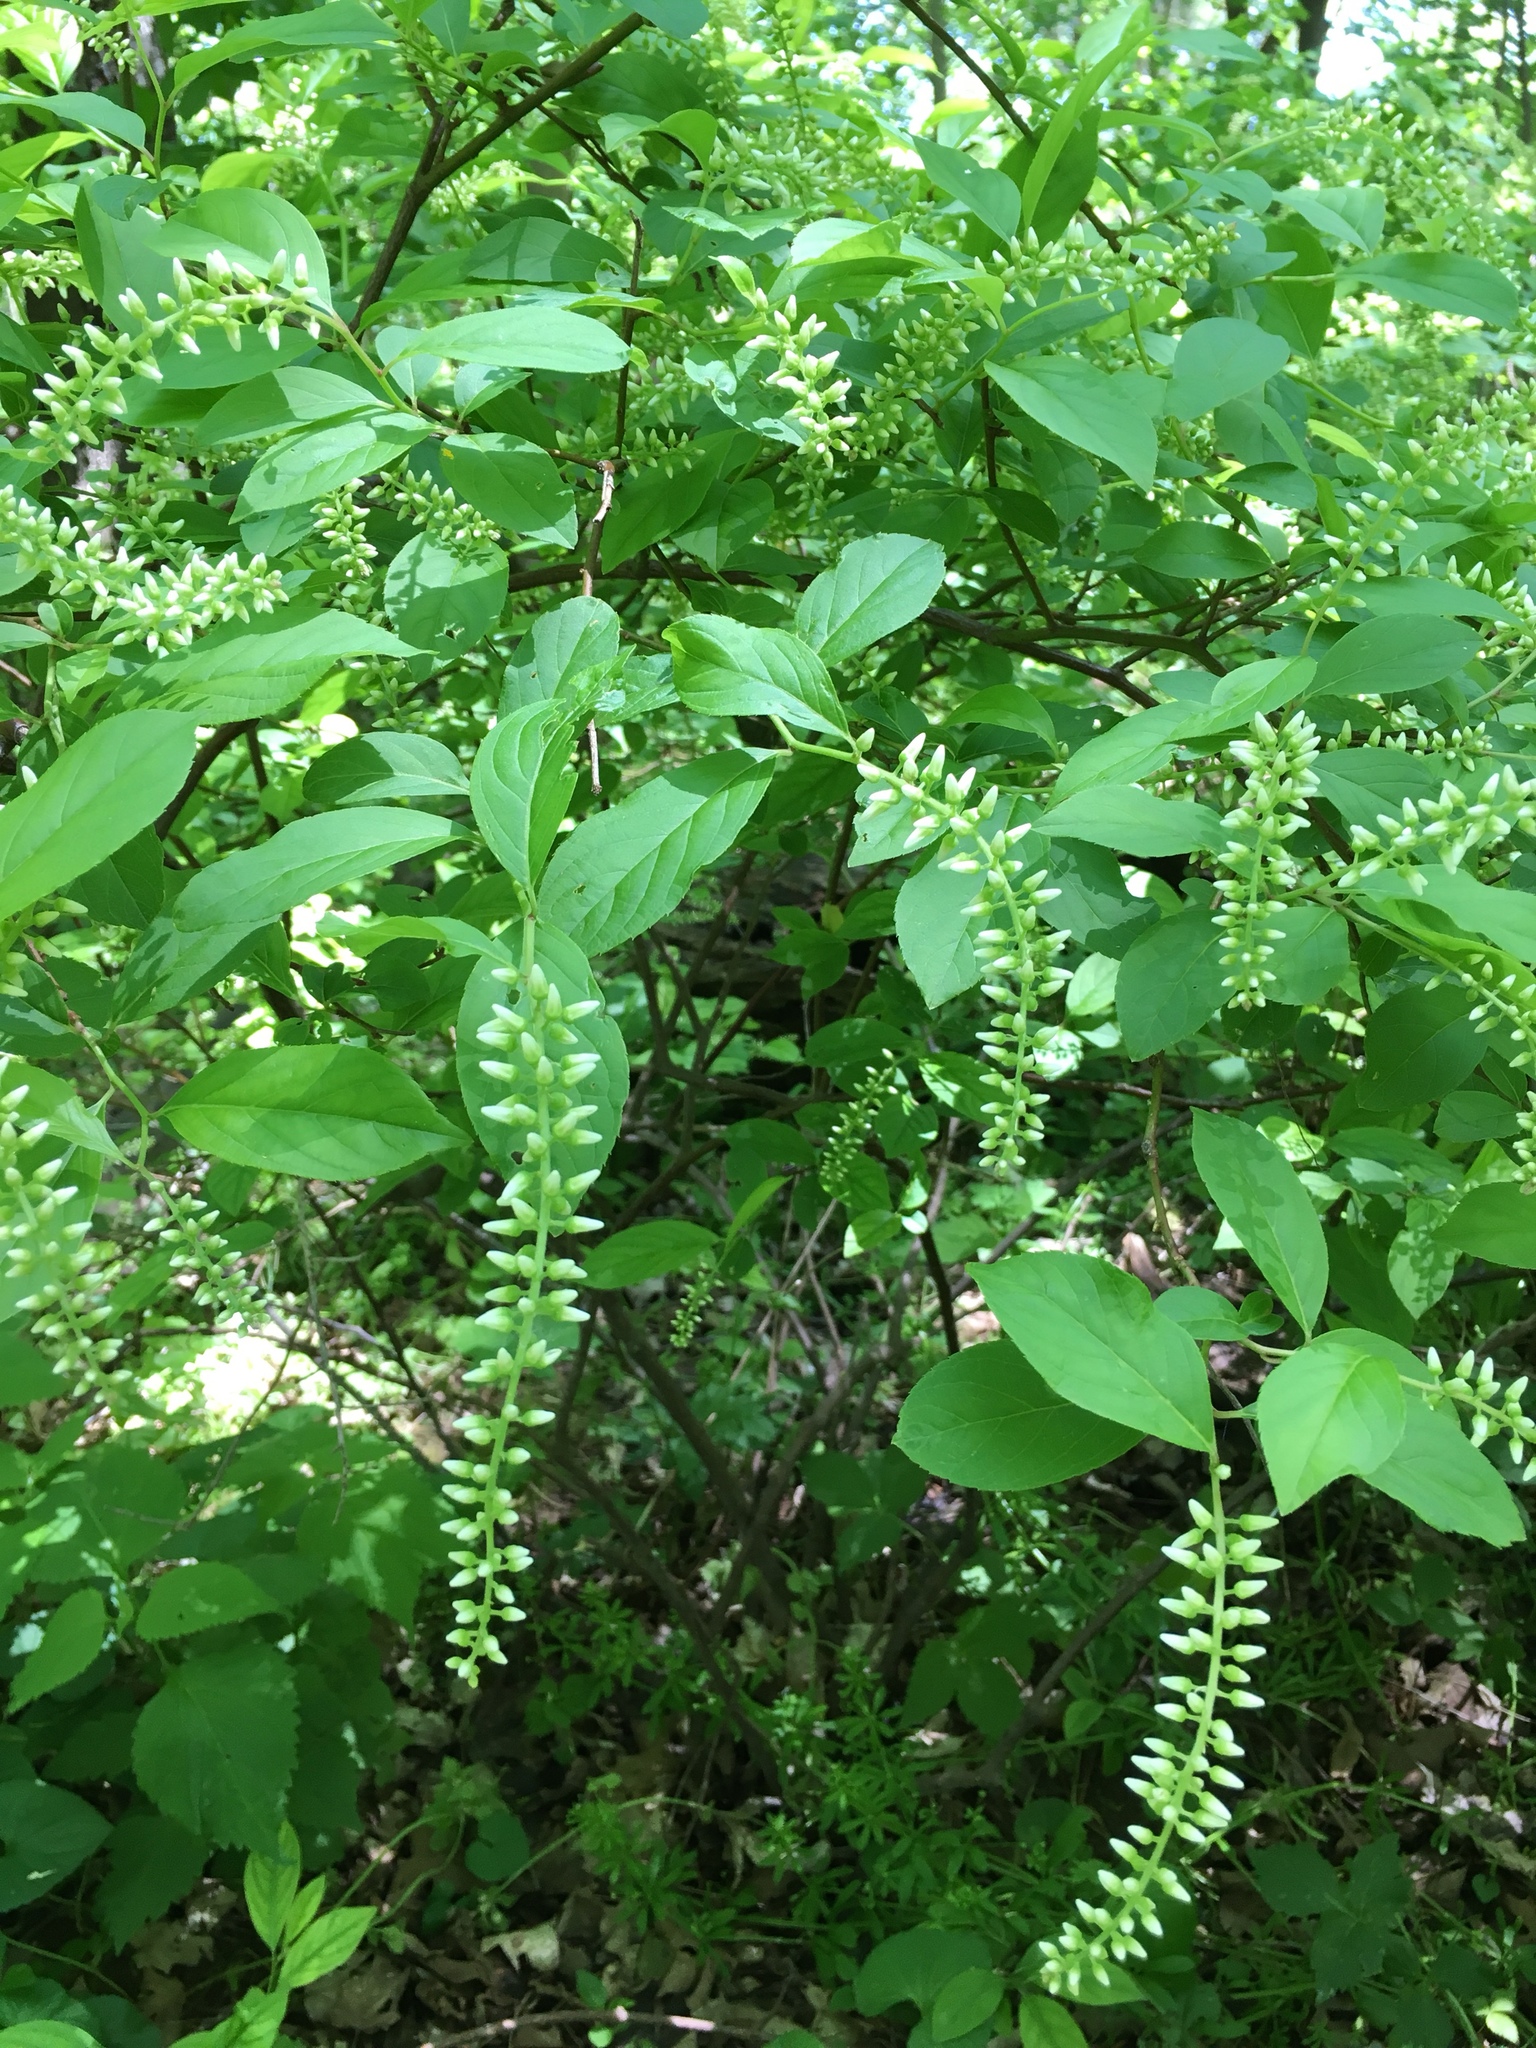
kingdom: Plantae
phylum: Tracheophyta
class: Magnoliopsida
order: Saxifragales
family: Iteaceae
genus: Itea
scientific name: Itea virginica
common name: Sweetspire
